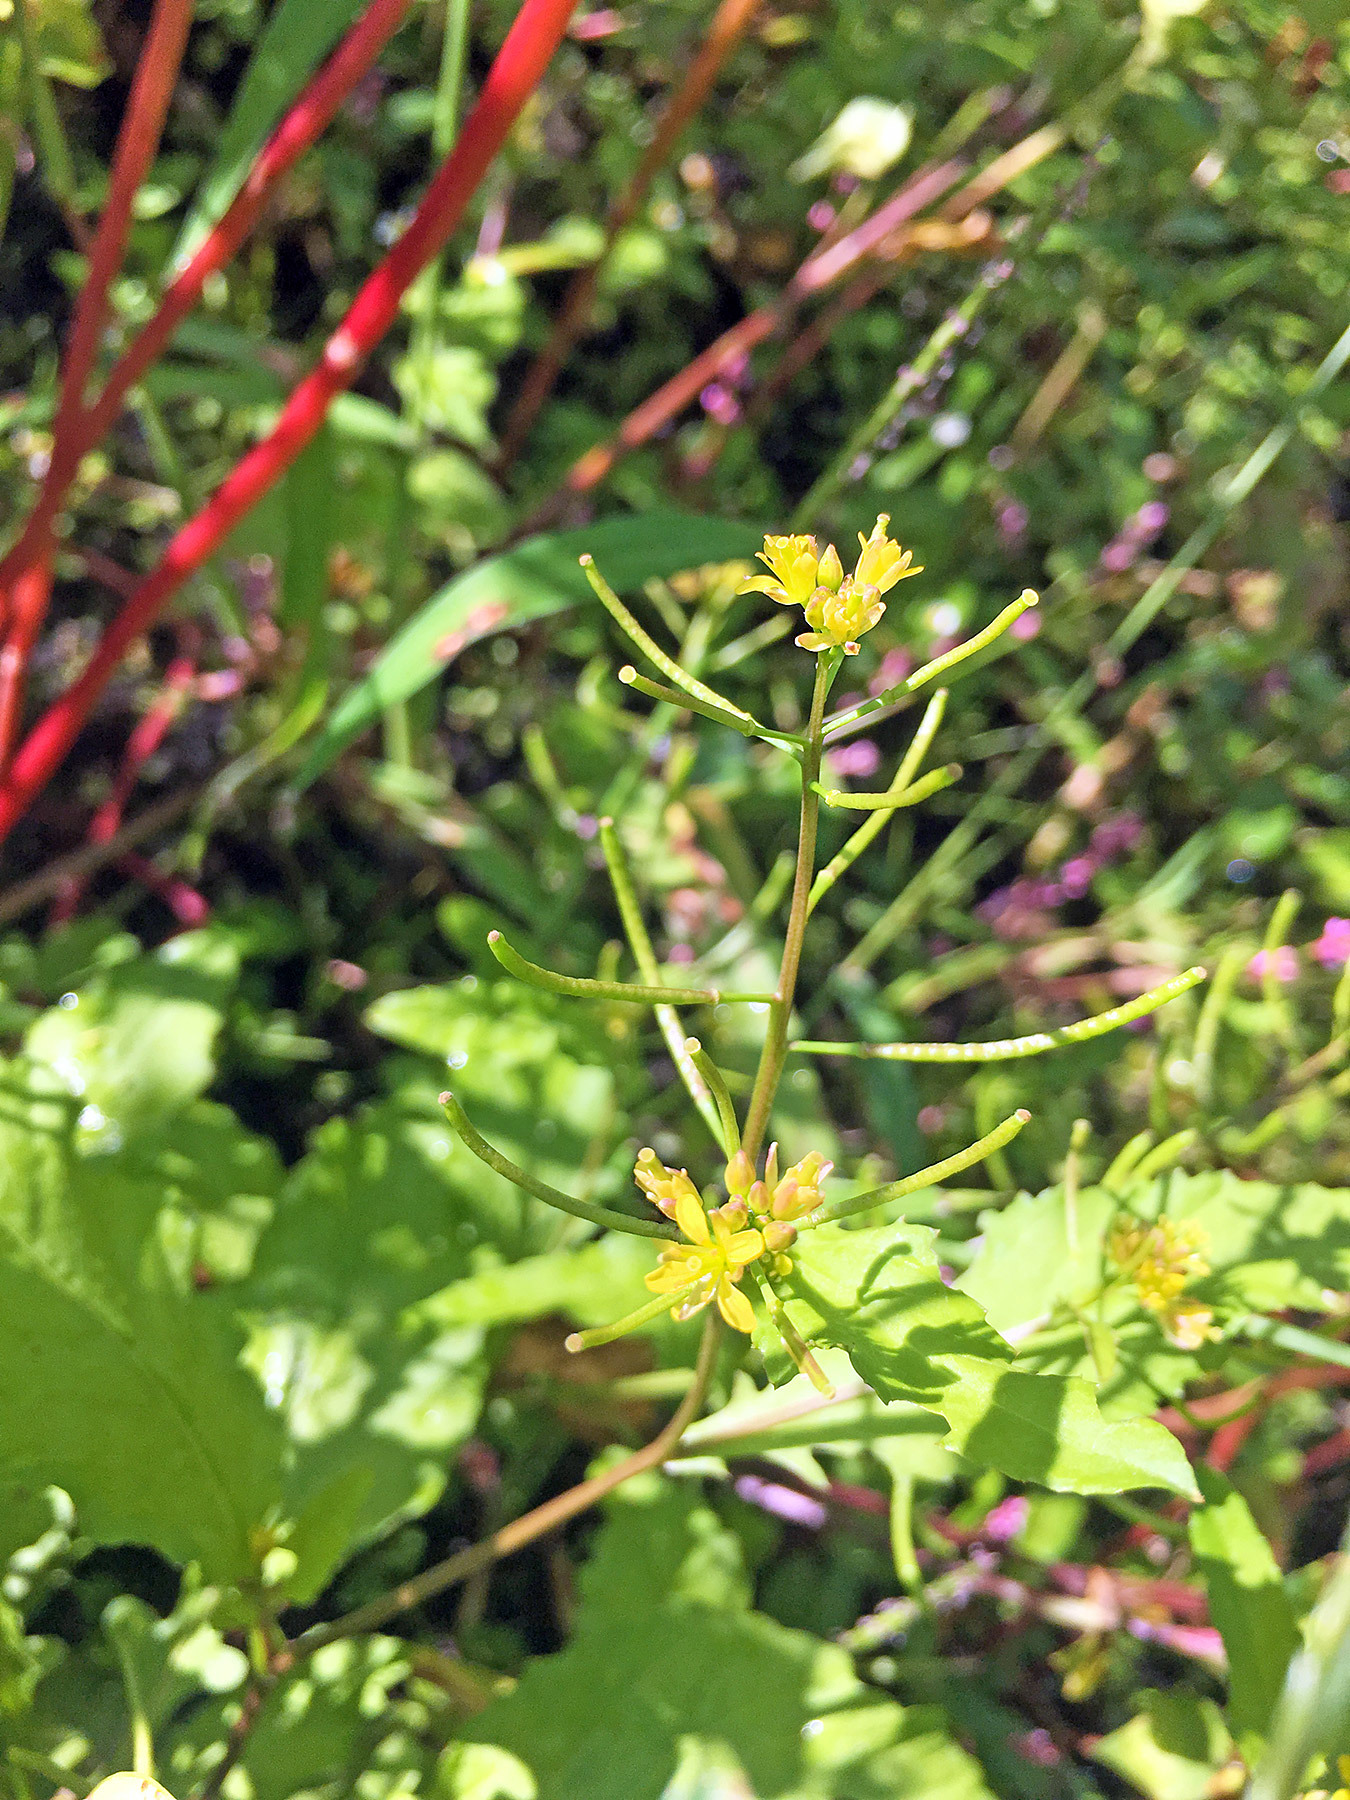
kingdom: Plantae
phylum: Tracheophyta
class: Magnoliopsida
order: Brassicales
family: Brassicaceae
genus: Rorippa
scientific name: Rorippa indica
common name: Variableleaf yellowcress
